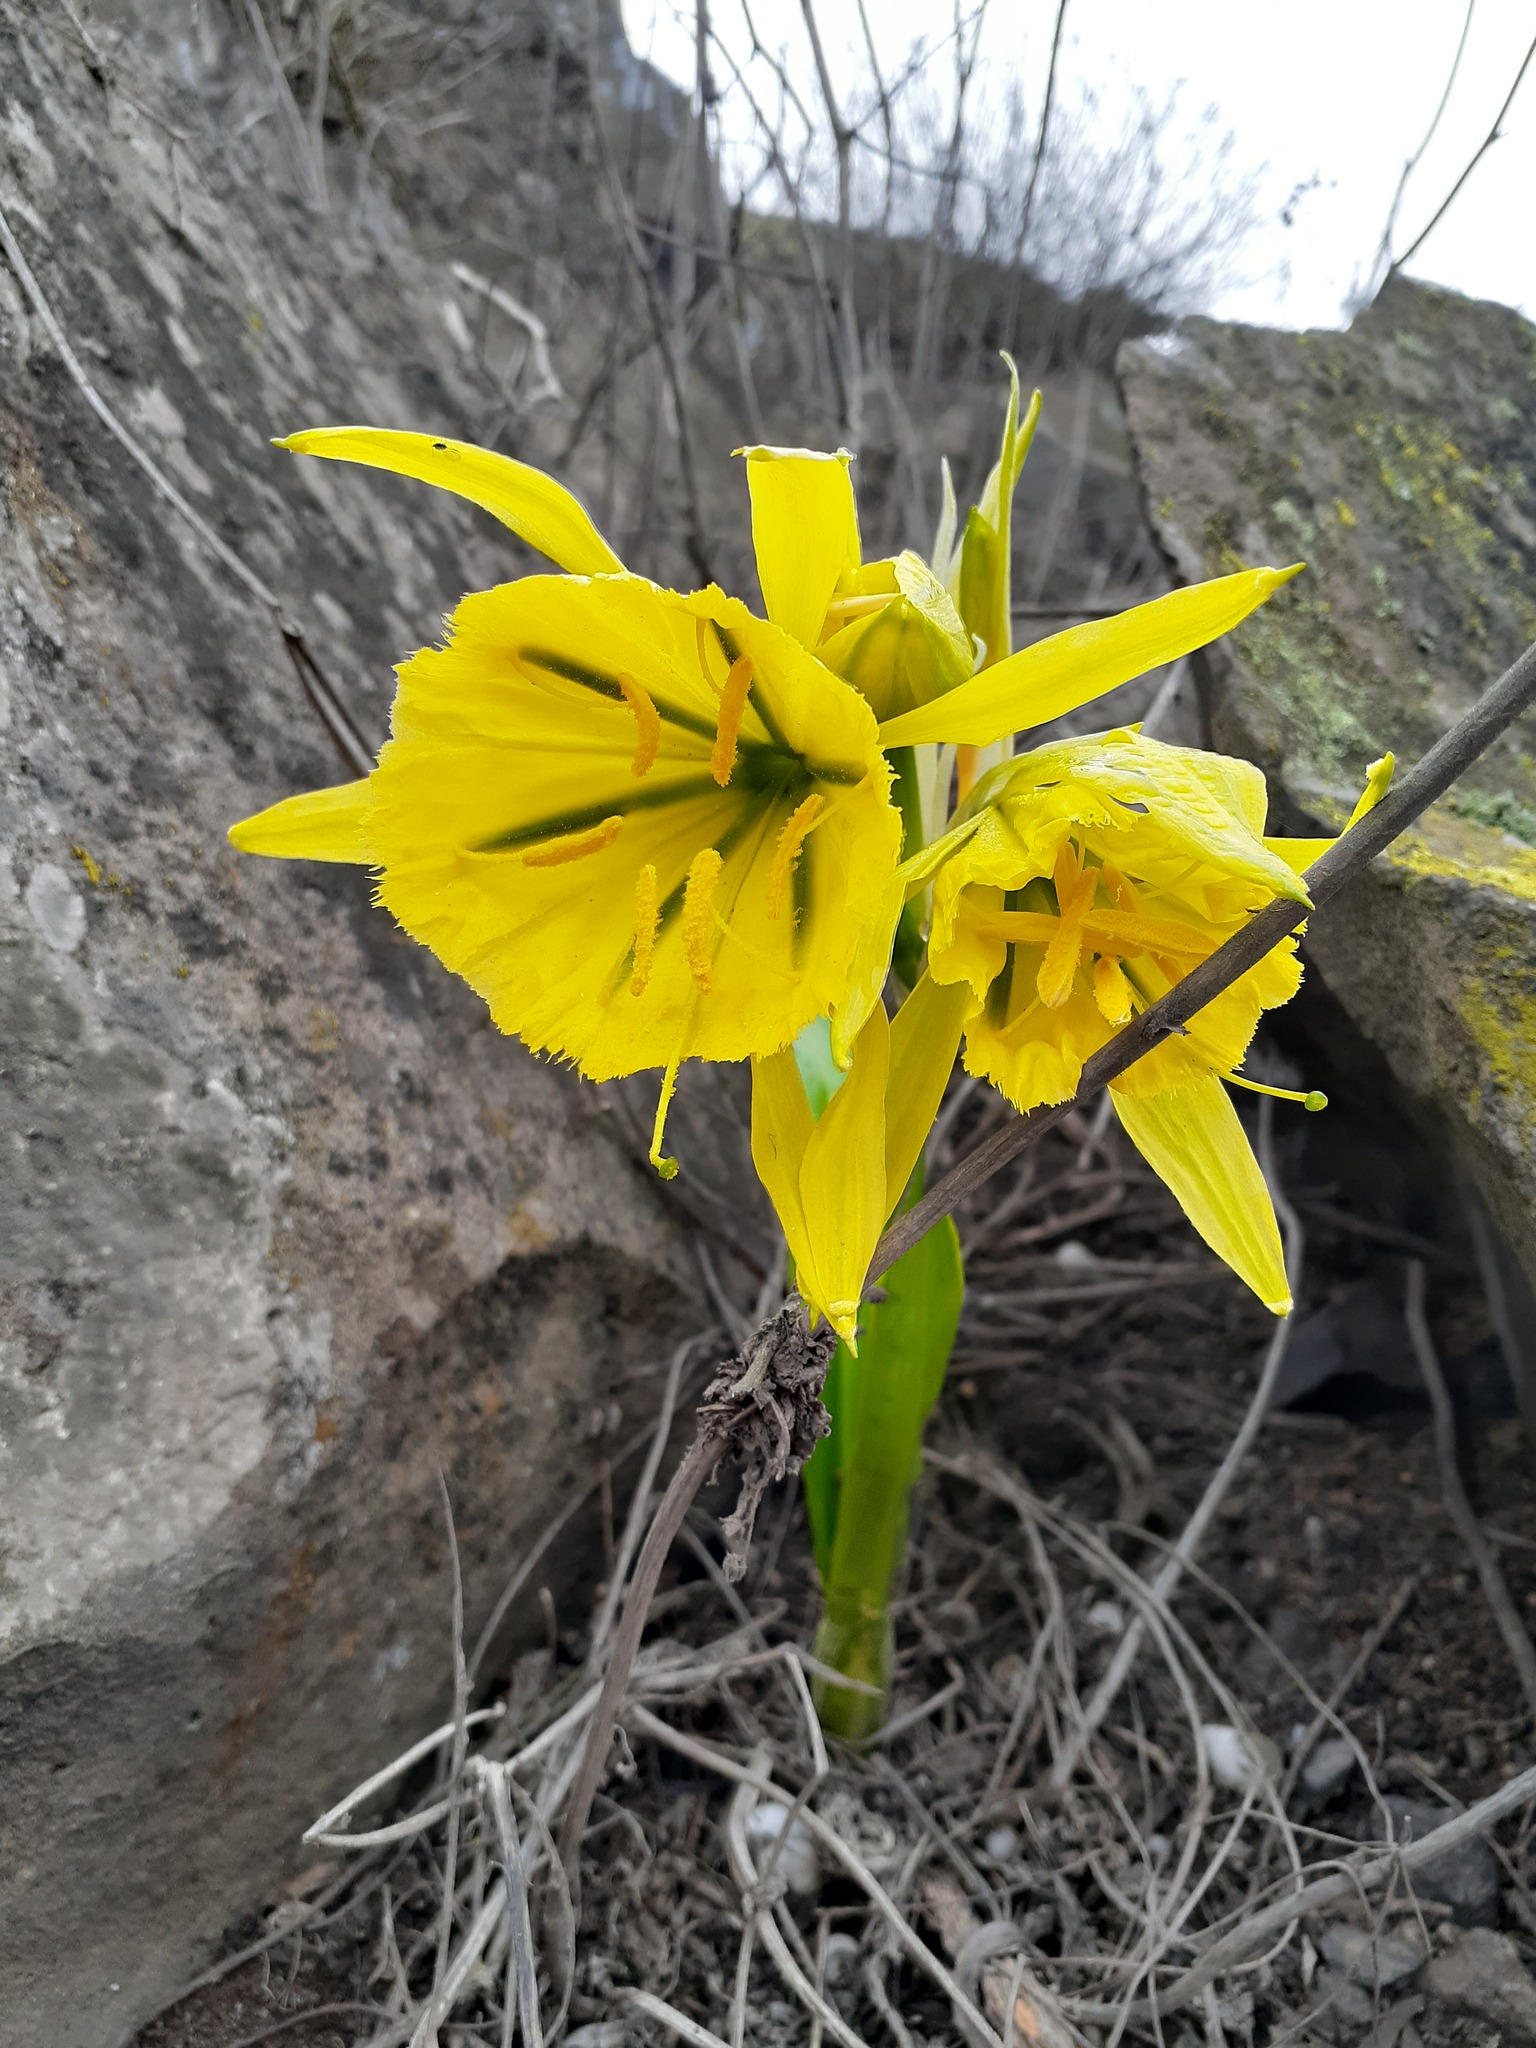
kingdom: Plantae
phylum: Tracheophyta
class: Liliopsida
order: Asparagales
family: Amaryllidaceae
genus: Ismene
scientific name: Ismene amancaes
